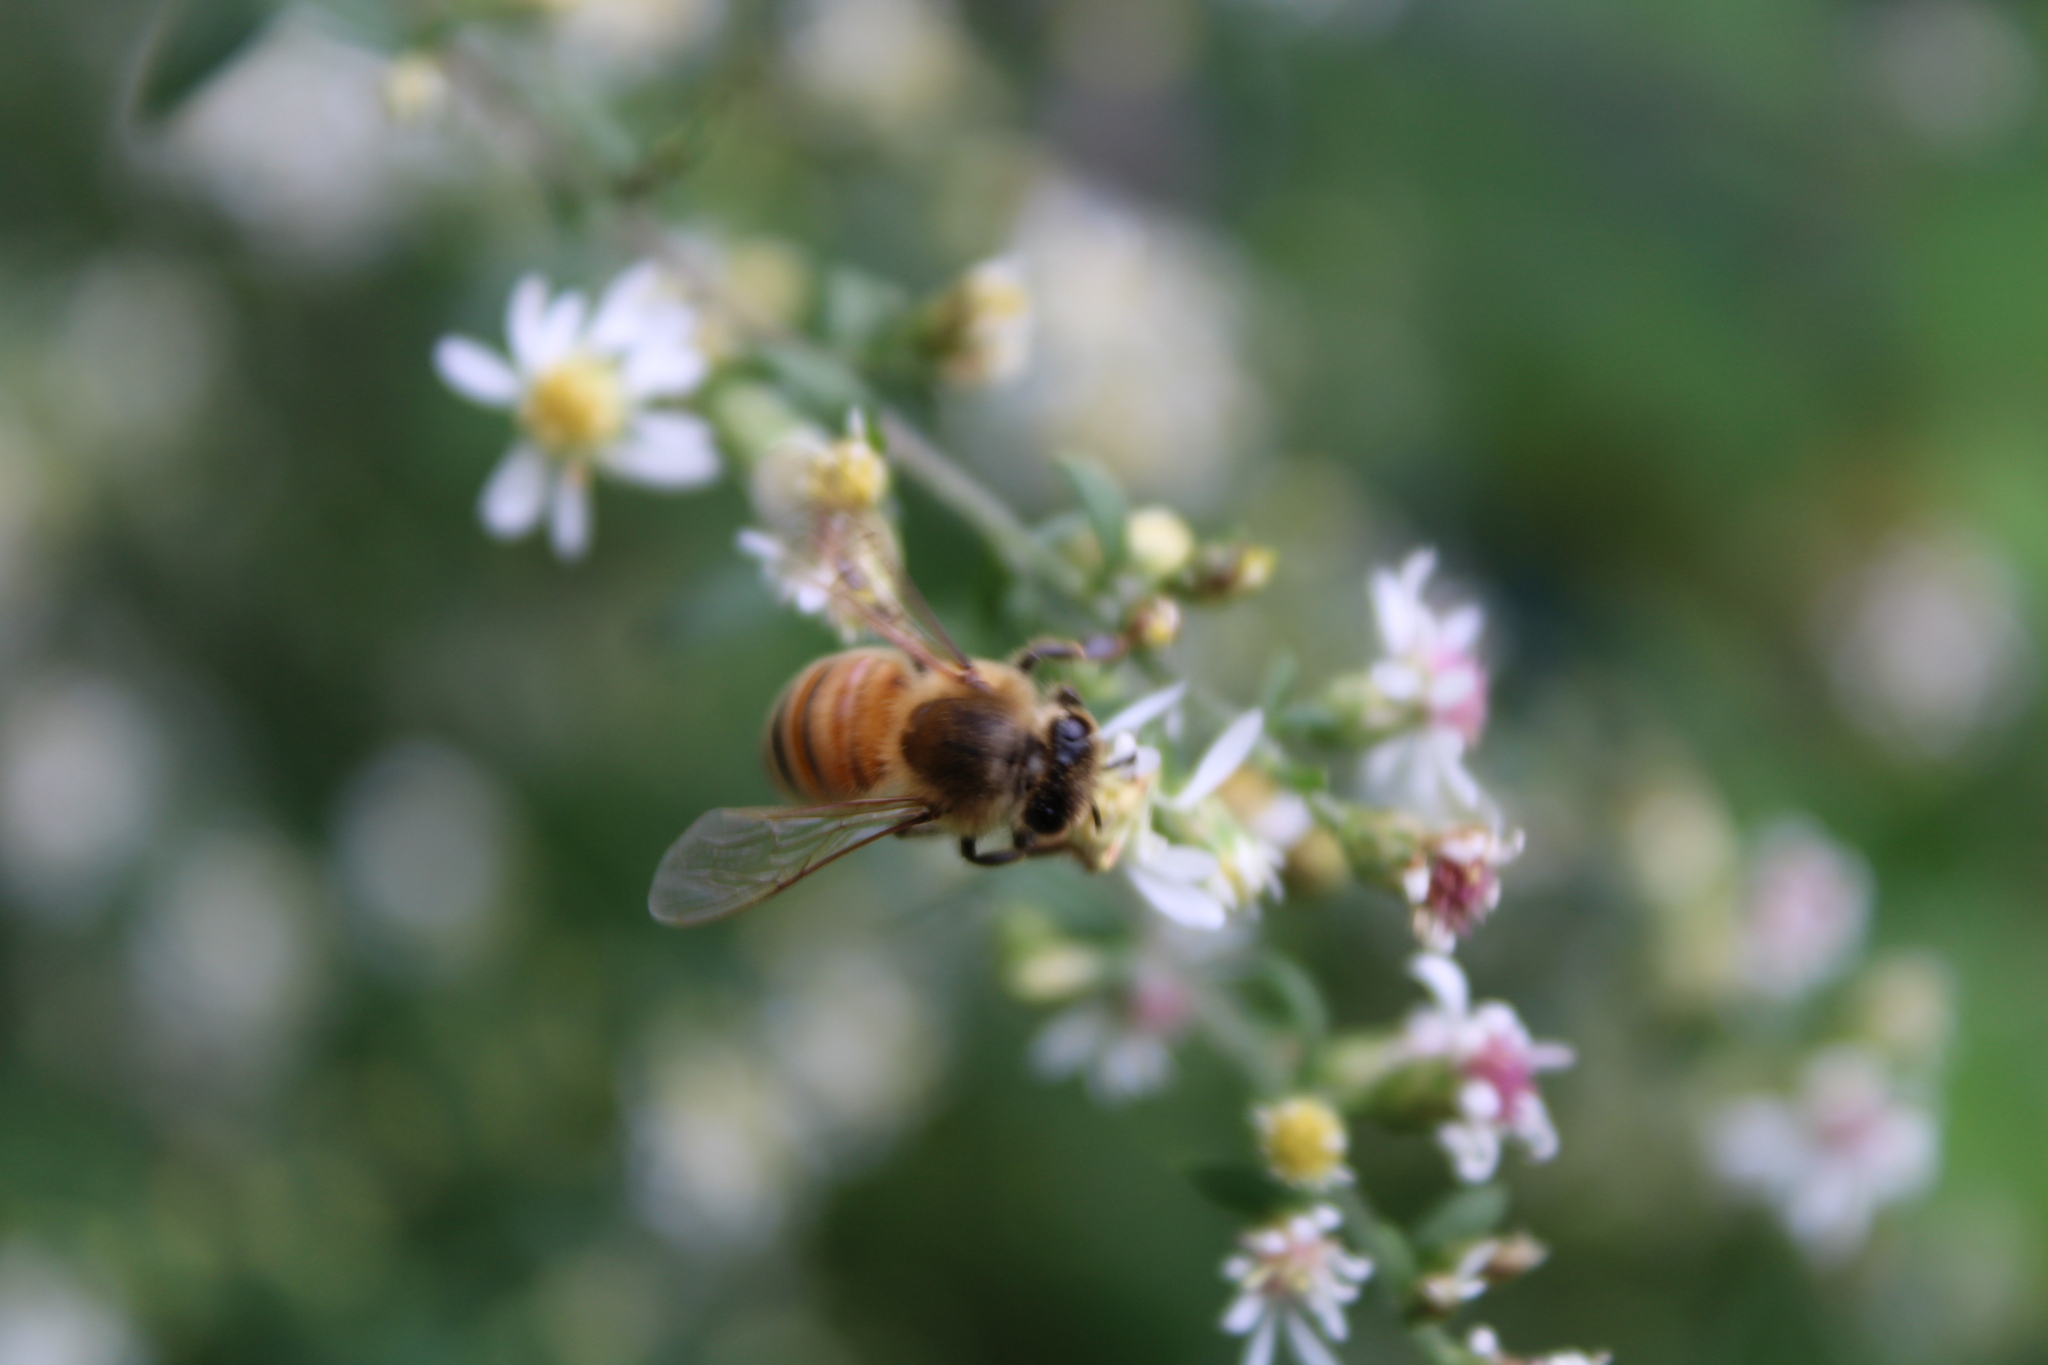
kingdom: Animalia
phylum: Arthropoda
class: Insecta
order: Hymenoptera
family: Apidae
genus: Apis
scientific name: Apis mellifera
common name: Honey bee
